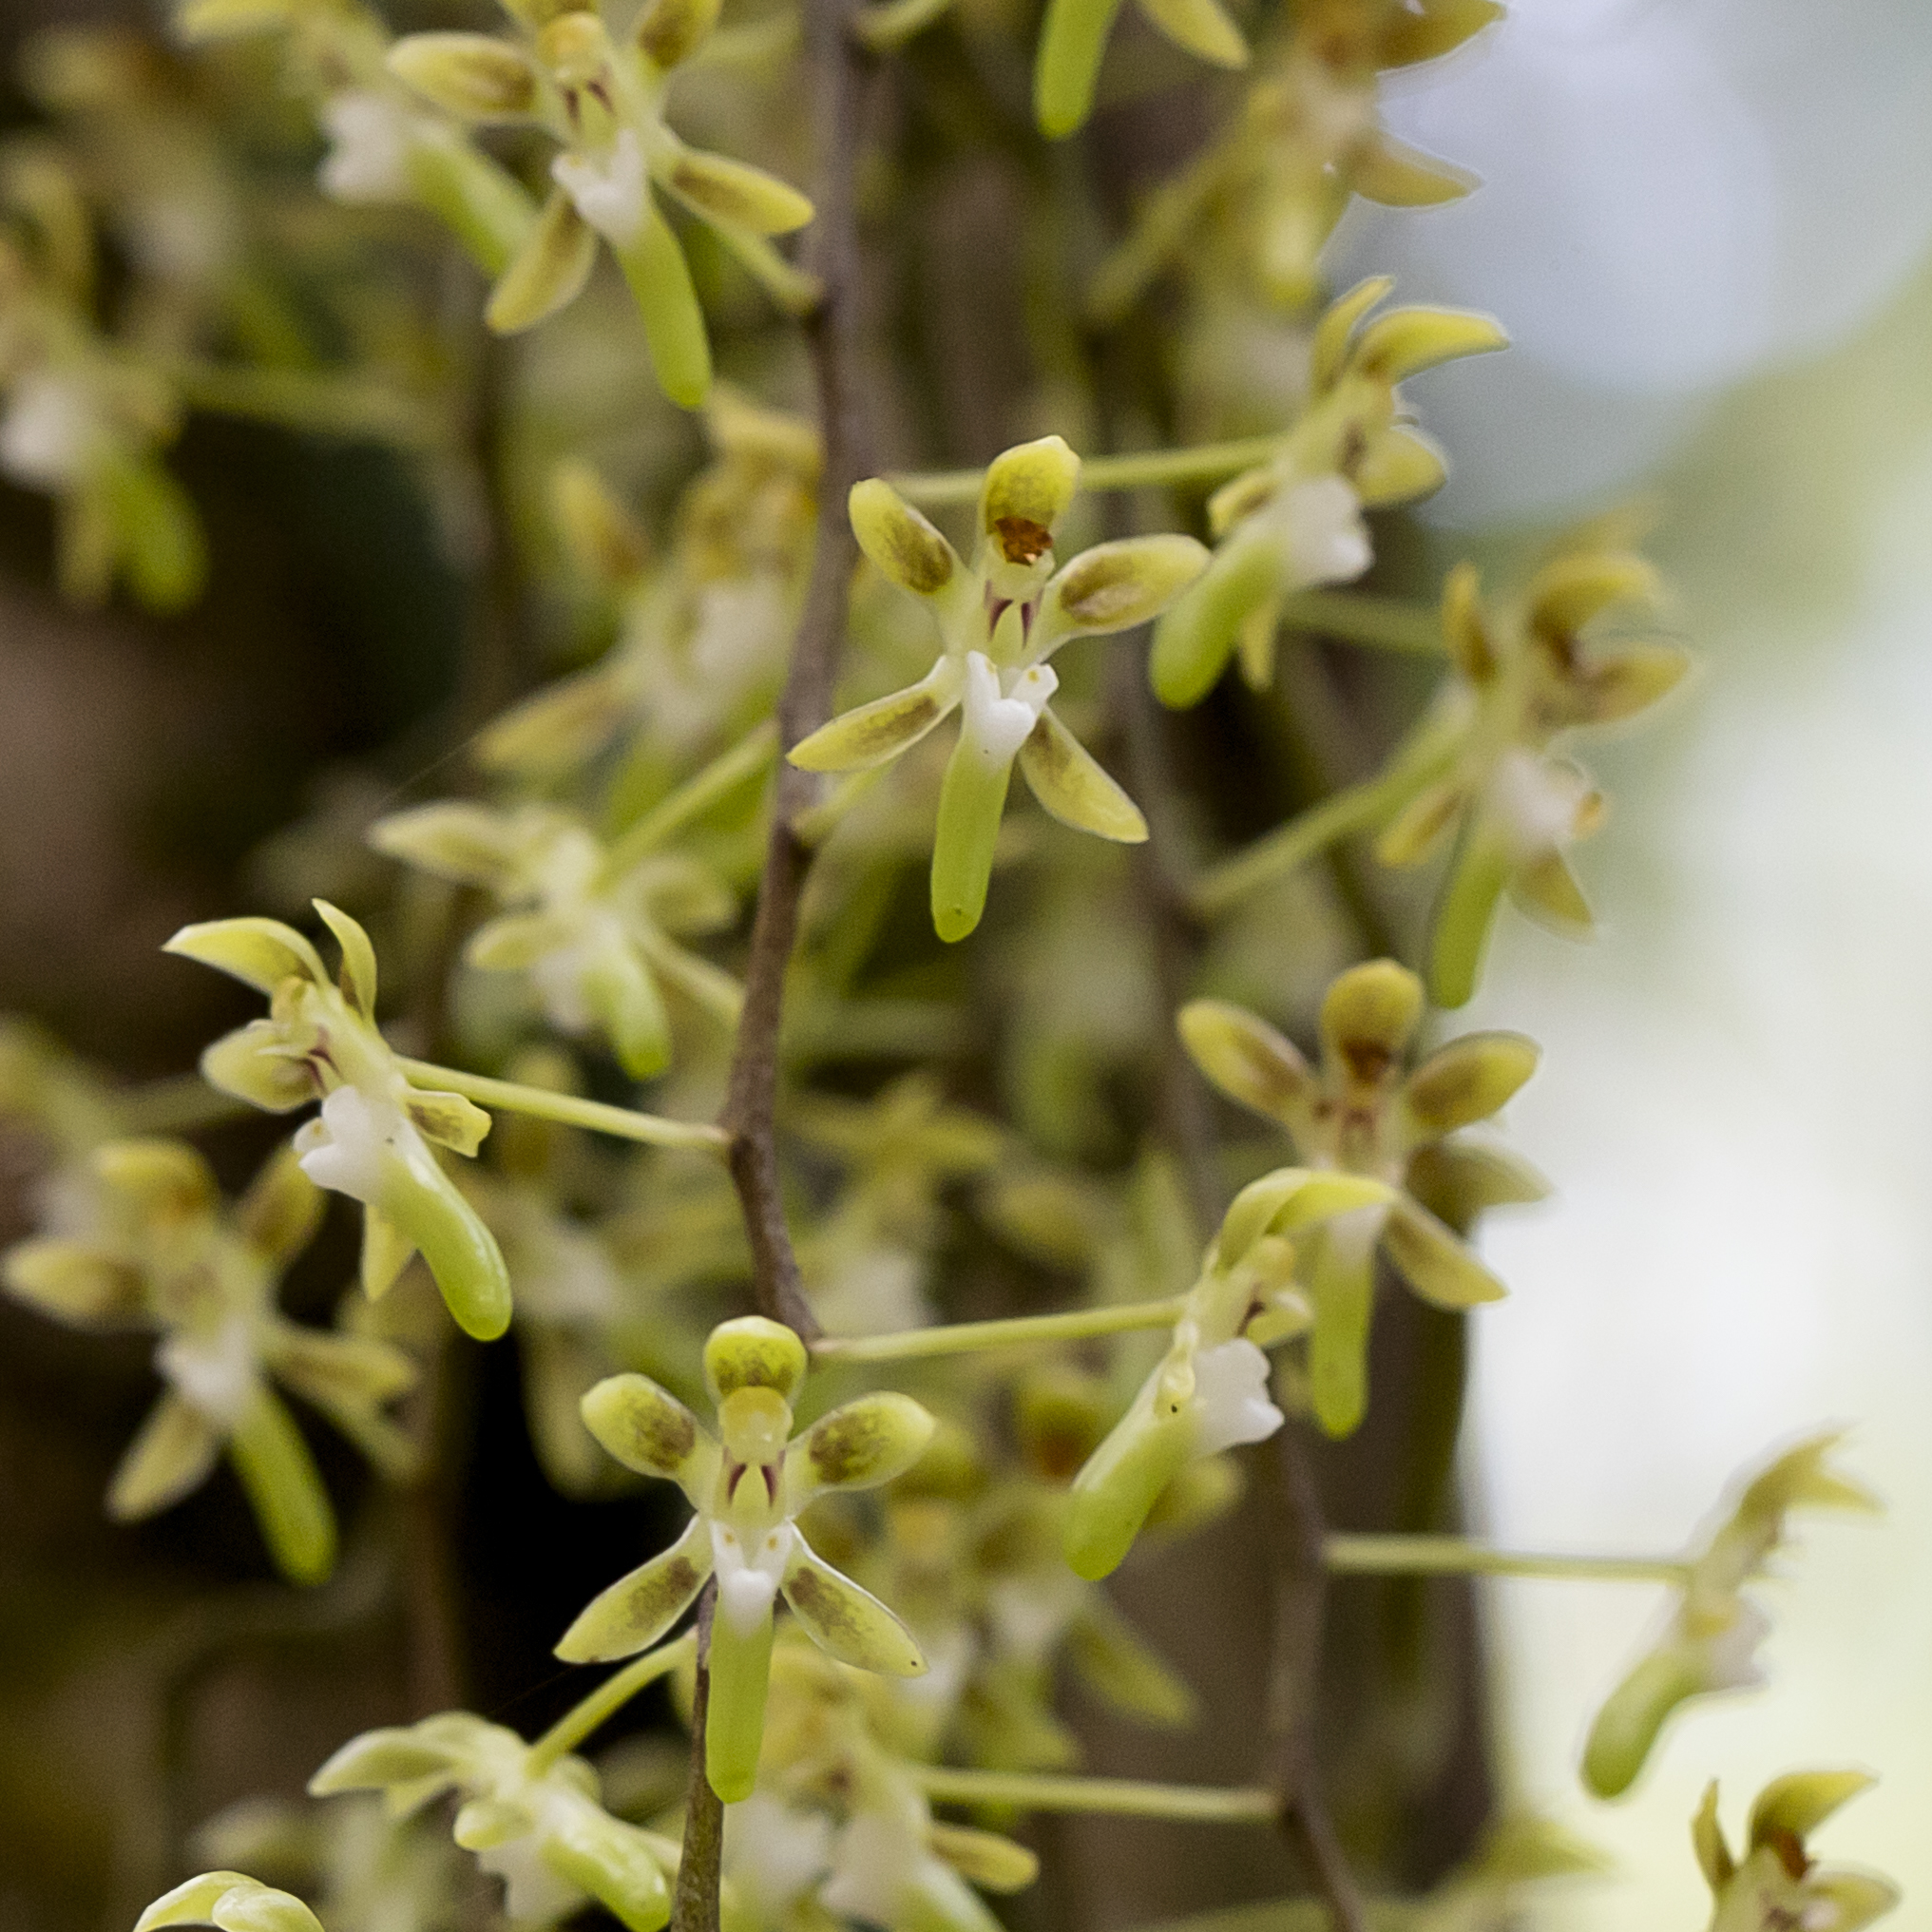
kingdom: Plantae
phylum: Tracheophyta
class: Liliopsida
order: Asparagales
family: Orchidaceae
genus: Plectorrhiza
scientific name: Plectorrhiza brevilabris
